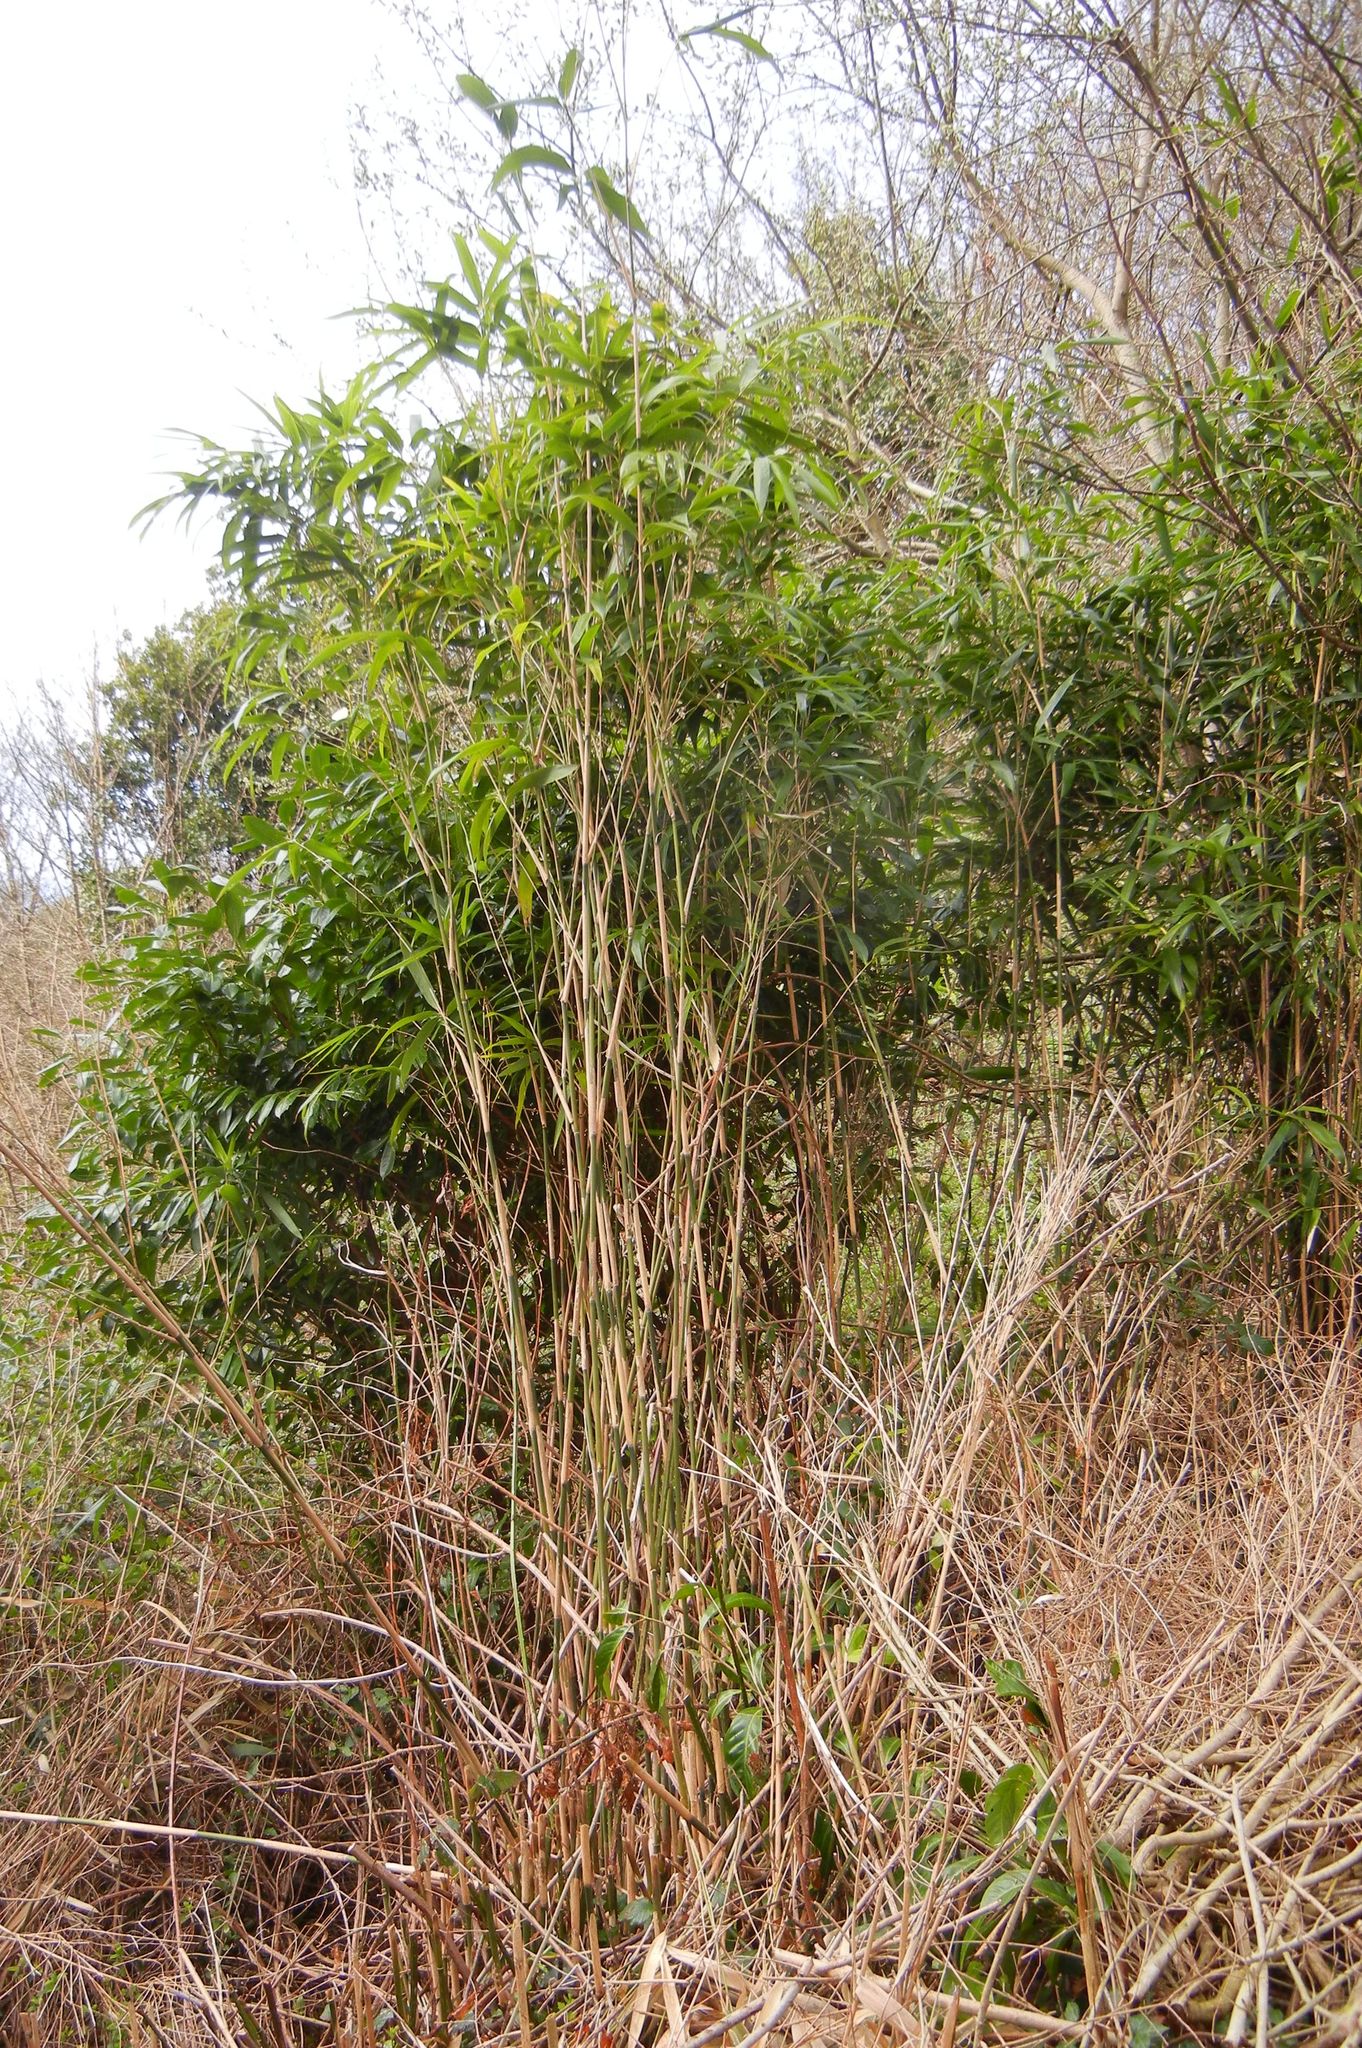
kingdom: Plantae
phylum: Tracheophyta
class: Liliopsida
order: Poales
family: Poaceae
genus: Pseudosasa
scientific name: Pseudosasa japonica
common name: Arrow bamboo
